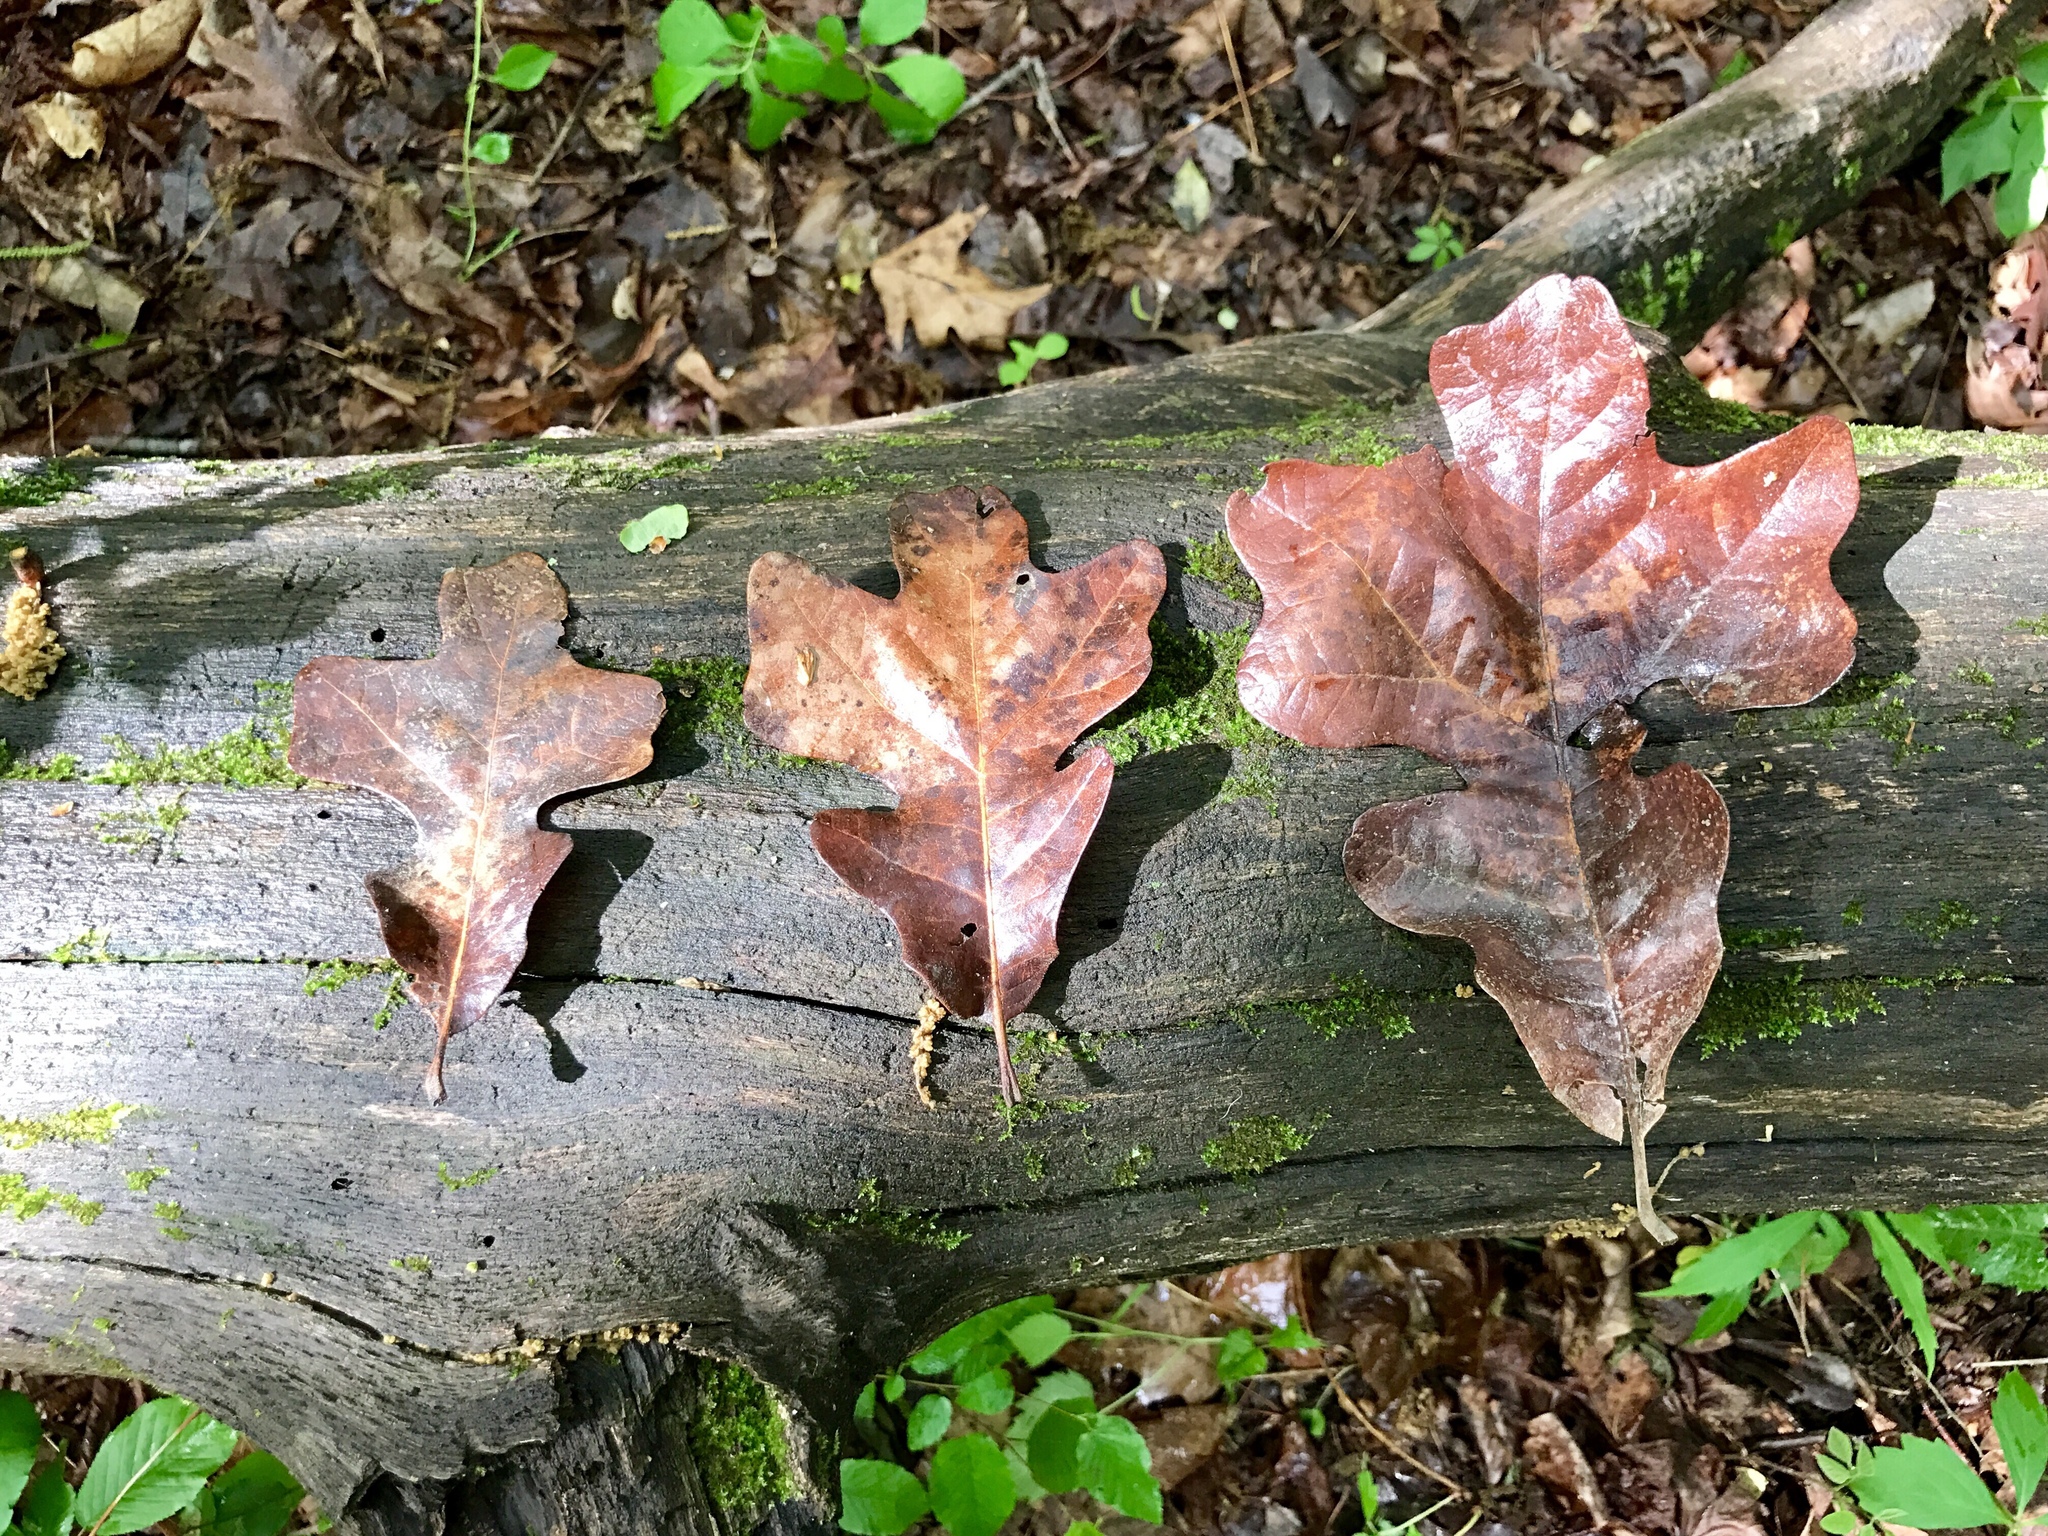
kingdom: Plantae
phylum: Tracheophyta
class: Magnoliopsida
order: Fagales
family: Fagaceae
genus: Quercus
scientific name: Quercus stellata
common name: Post oak
